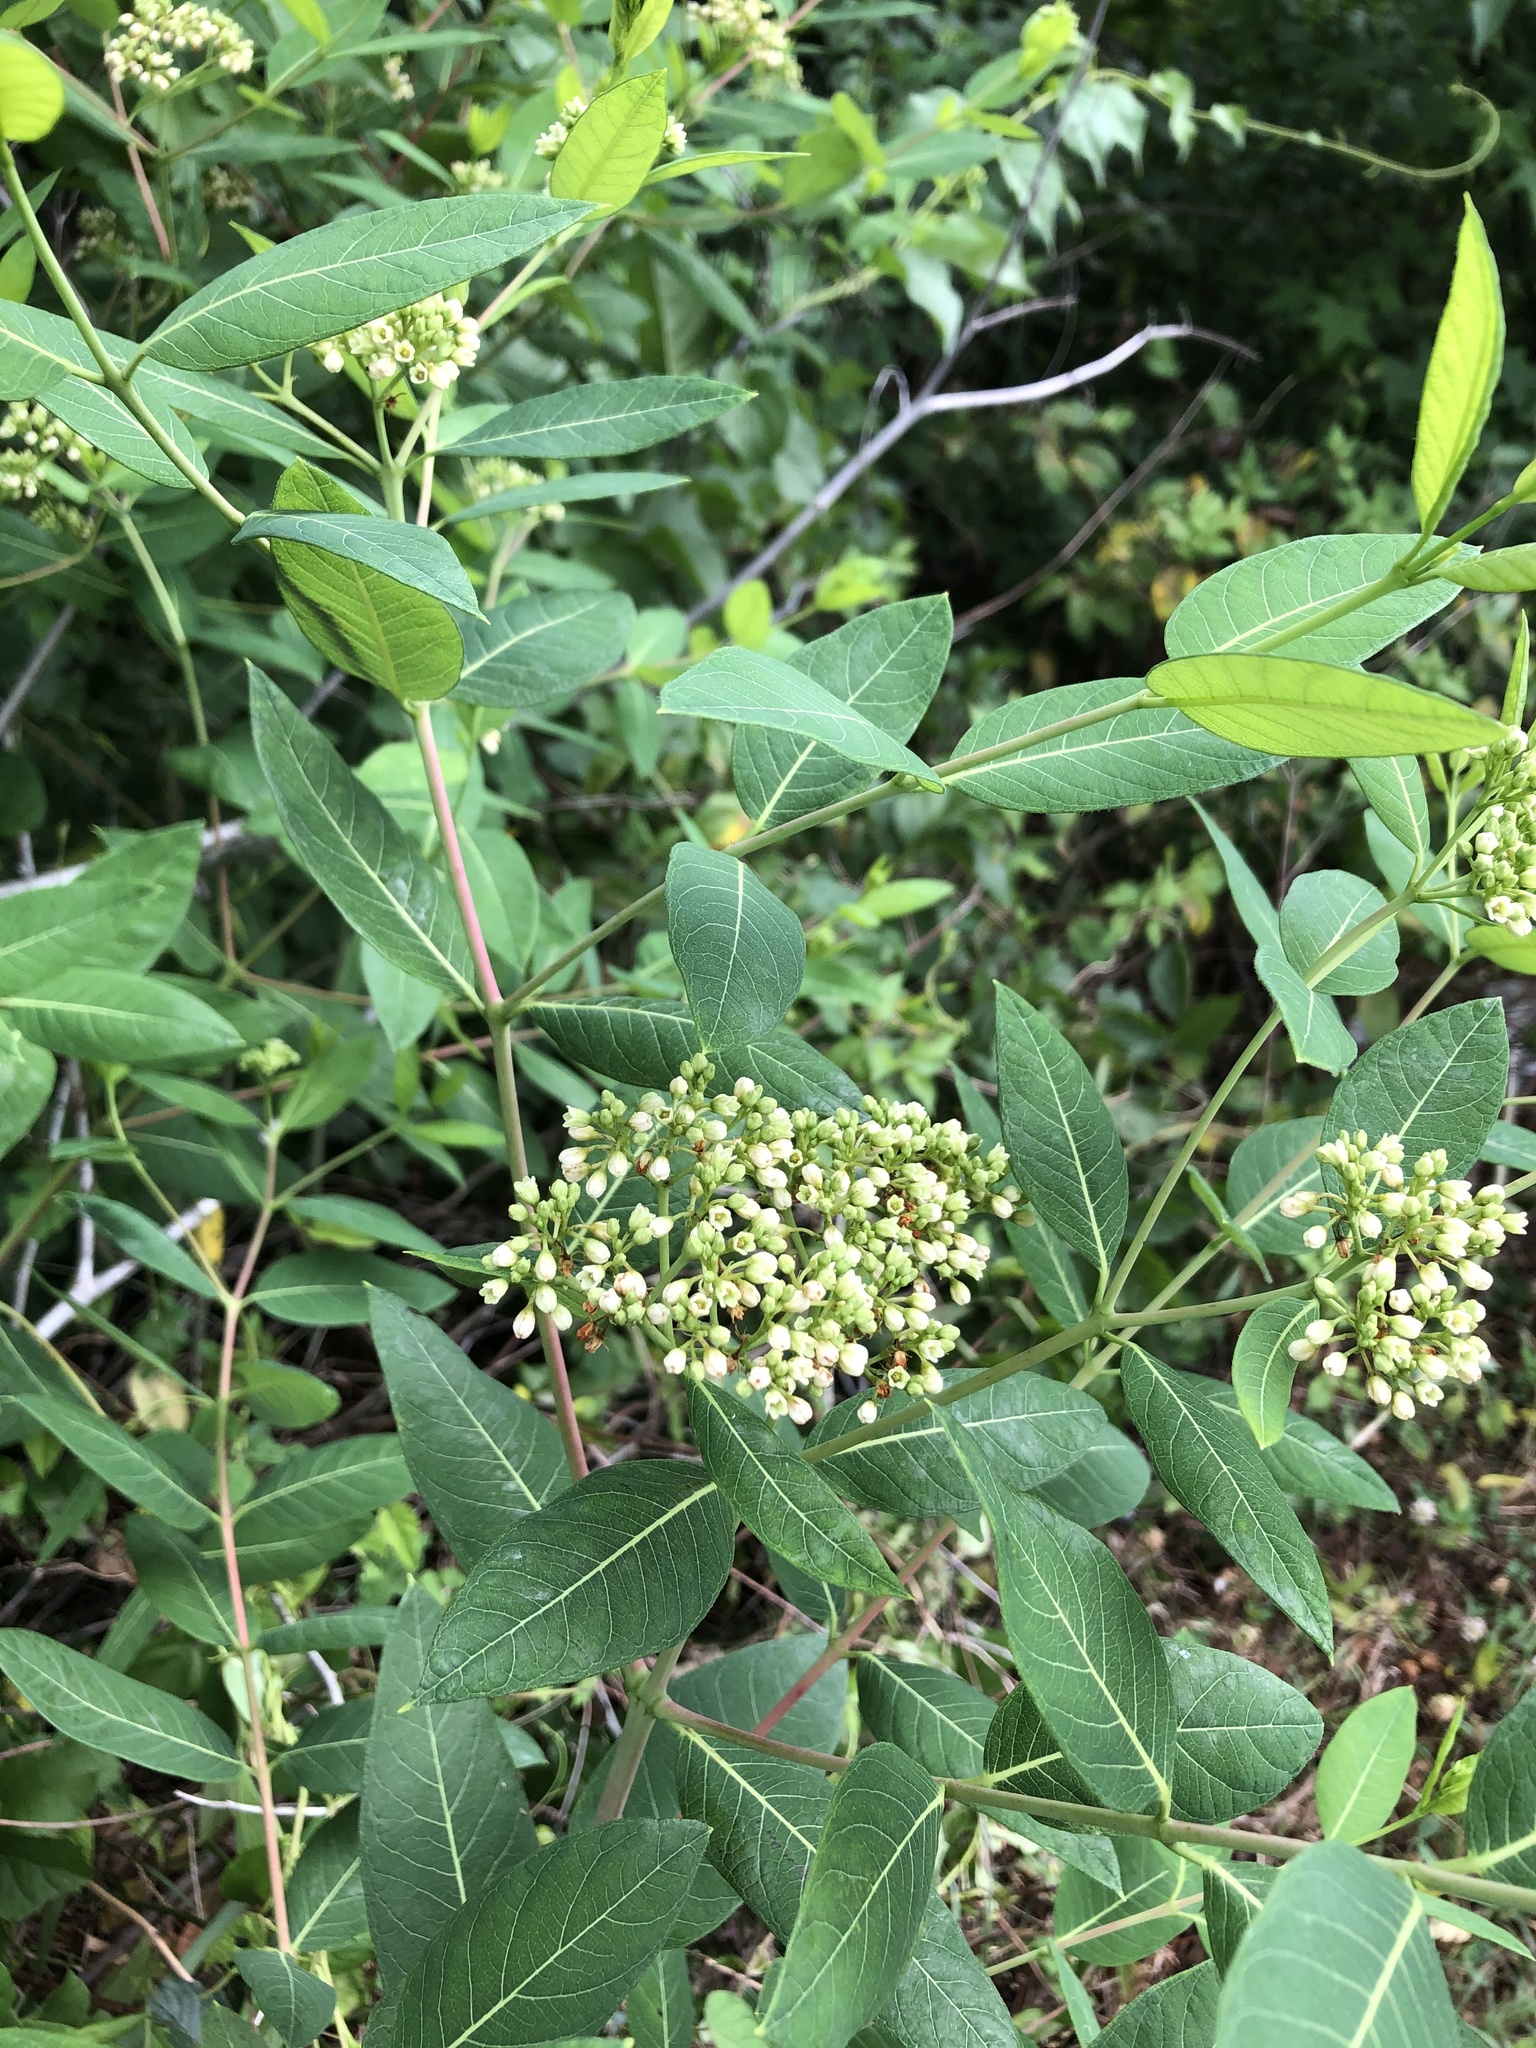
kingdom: Plantae
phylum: Tracheophyta
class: Magnoliopsida
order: Gentianales
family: Apocynaceae
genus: Apocynum
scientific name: Apocynum cannabinum
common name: Hemp dogbane
